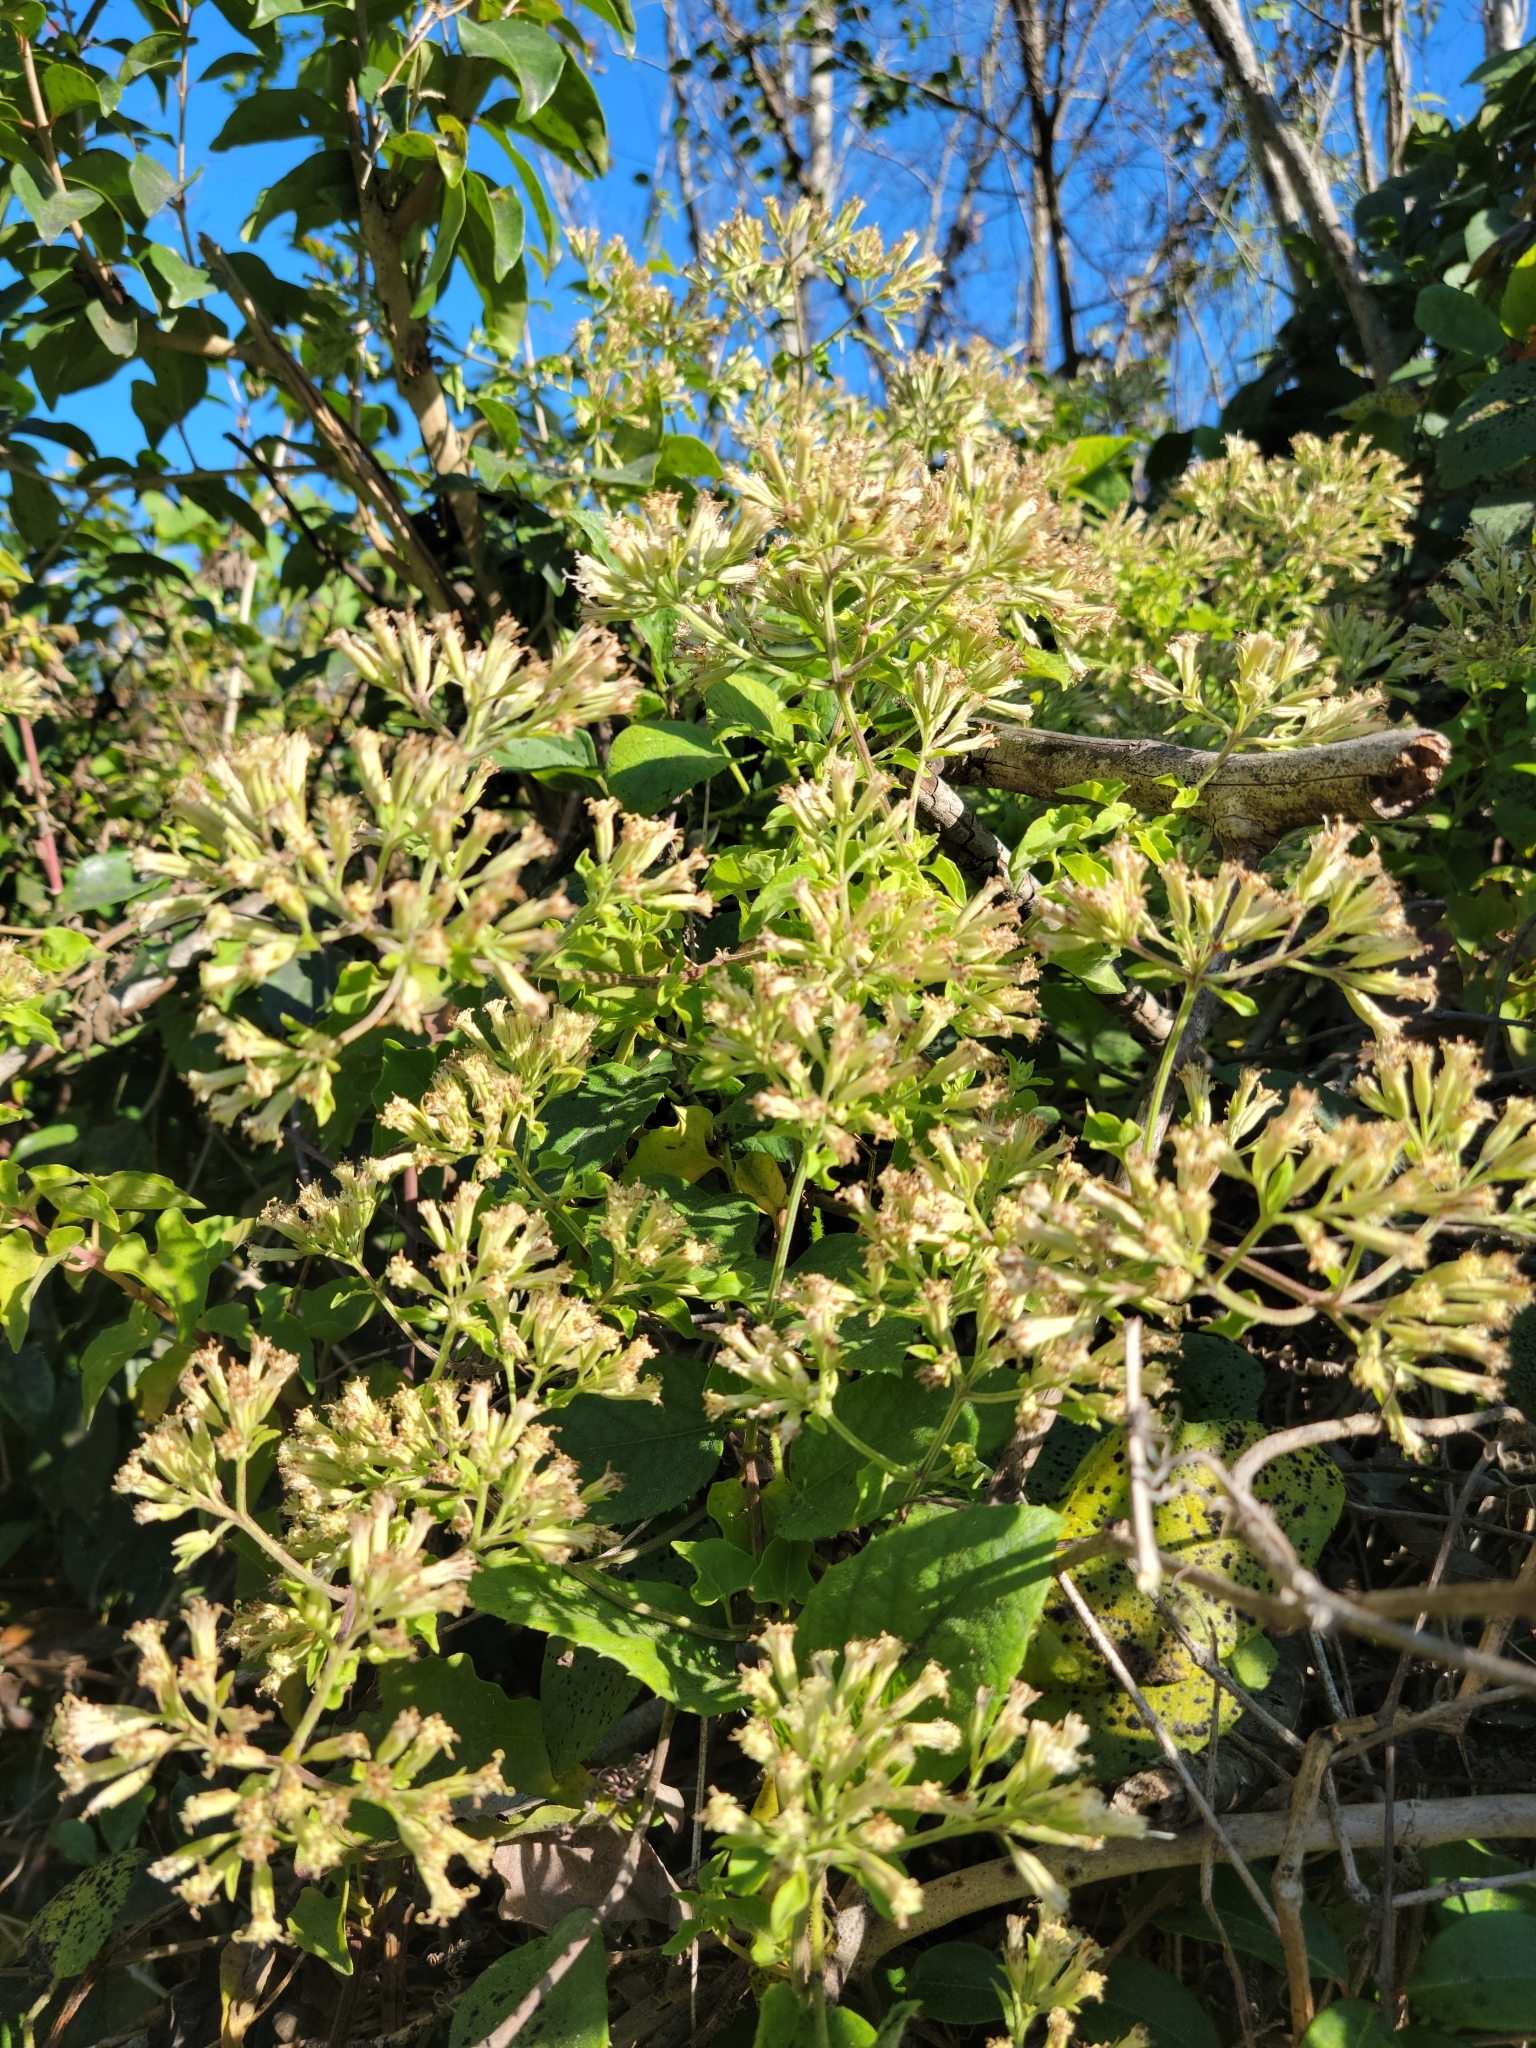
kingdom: Plantae
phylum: Tracheophyta
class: Magnoliopsida
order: Asterales
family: Asteraceae
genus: Mikania
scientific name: Mikania cordifolia
